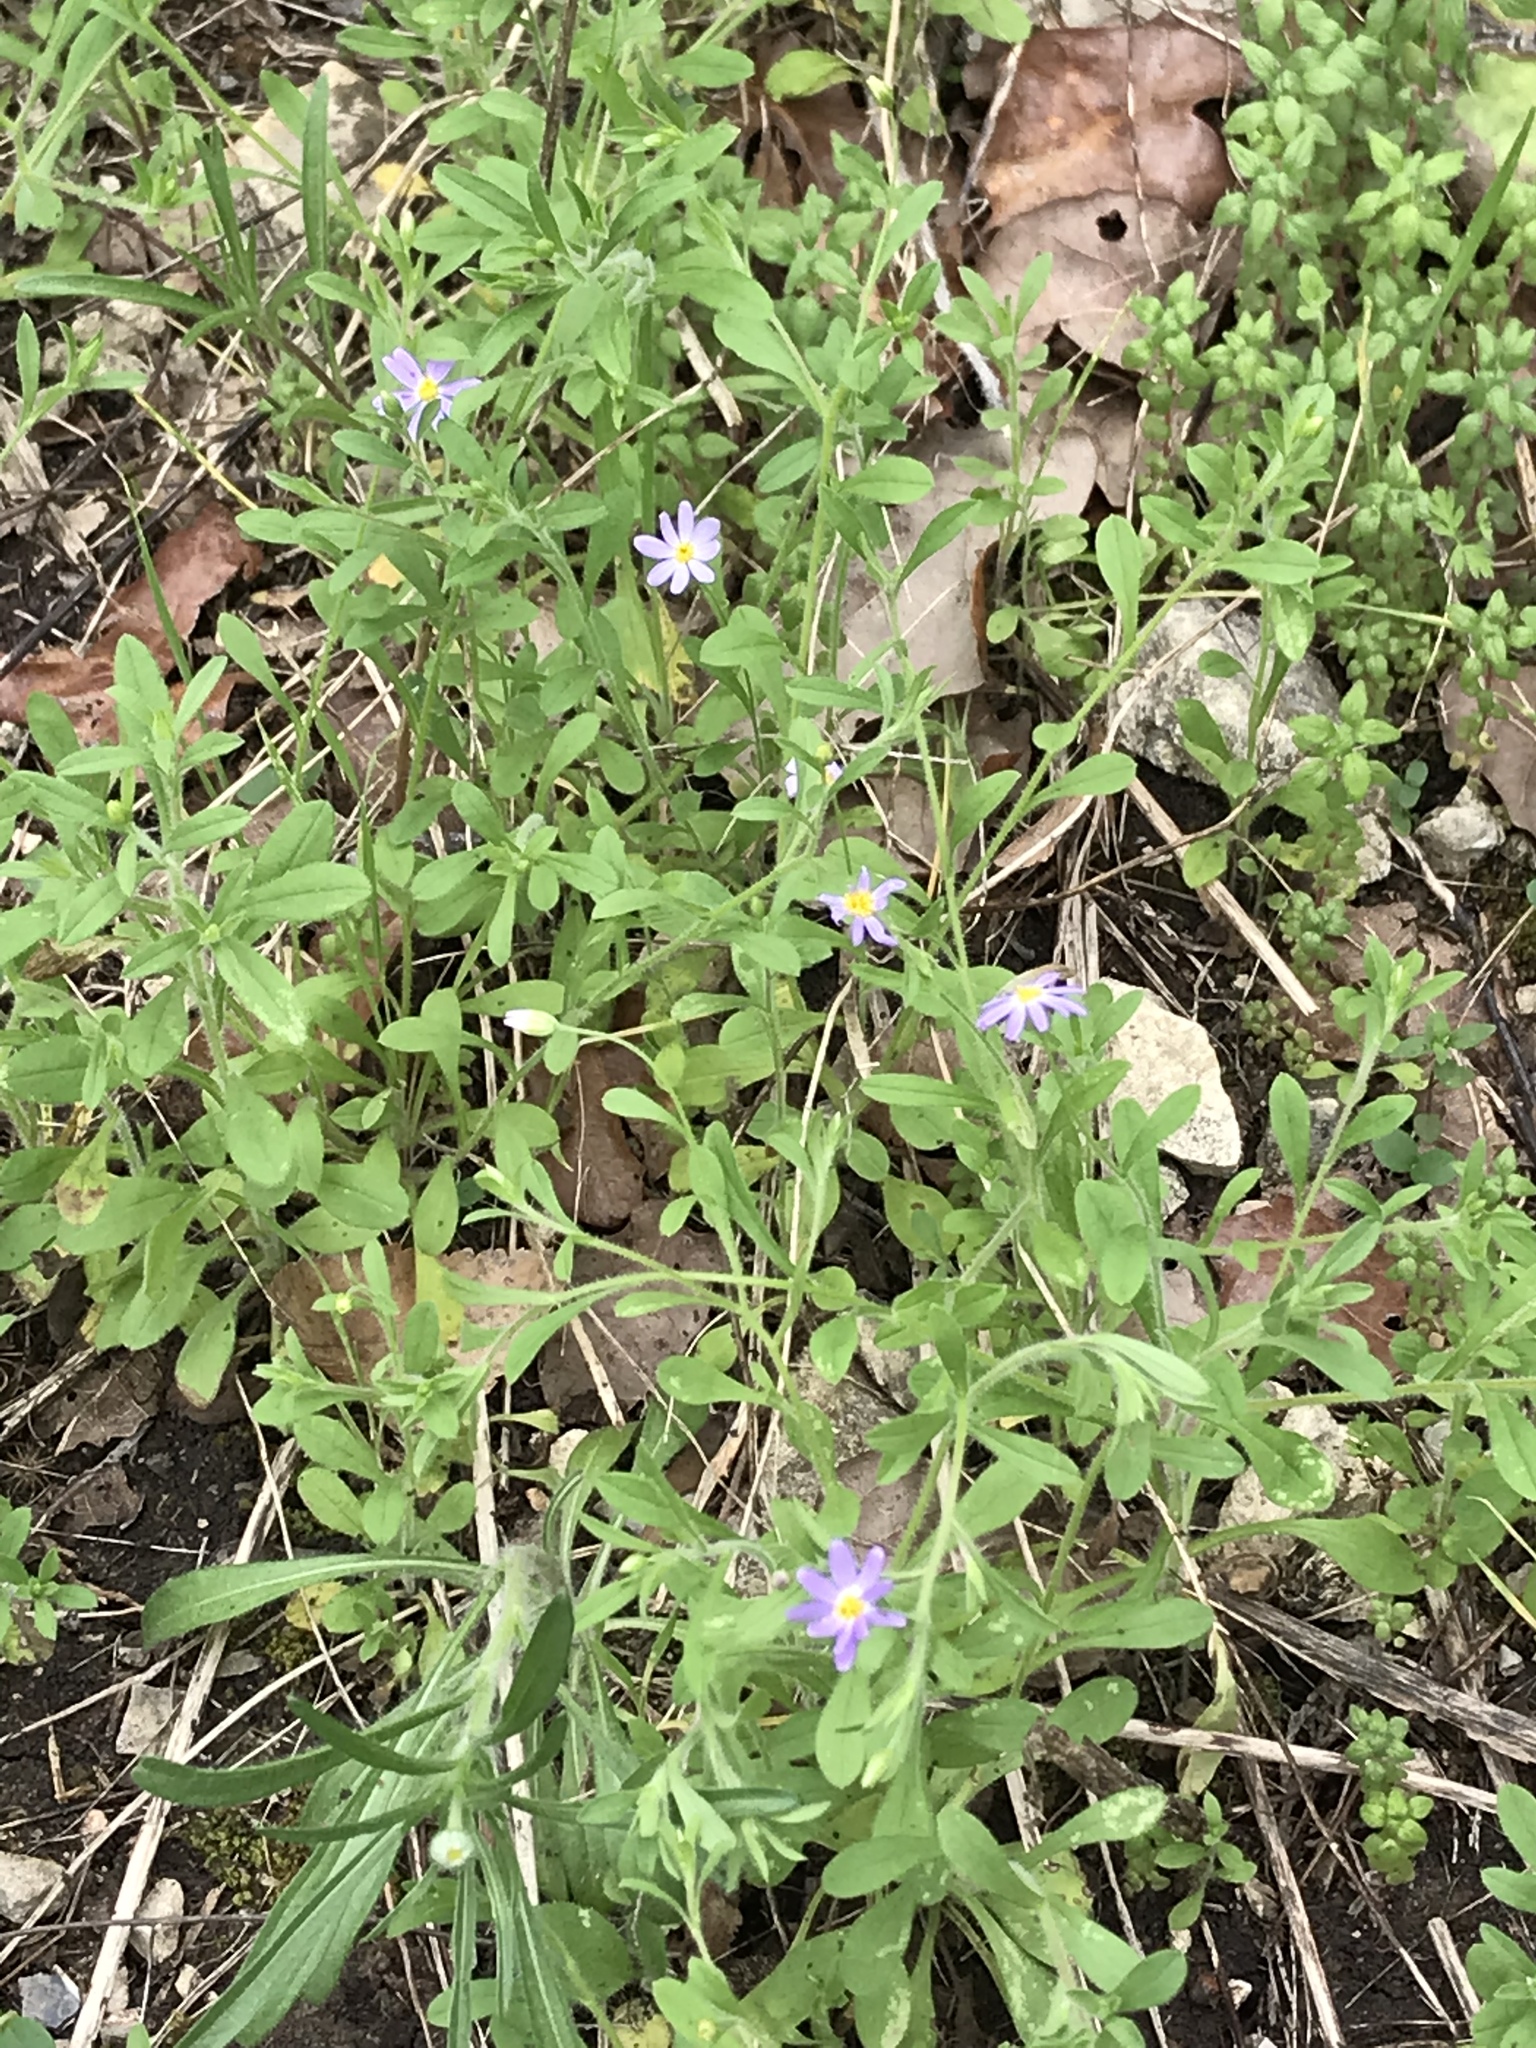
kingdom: Plantae
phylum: Tracheophyta
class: Magnoliopsida
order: Asterales
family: Asteraceae
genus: Chaetopappa
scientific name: Chaetopappa bellidifolia
